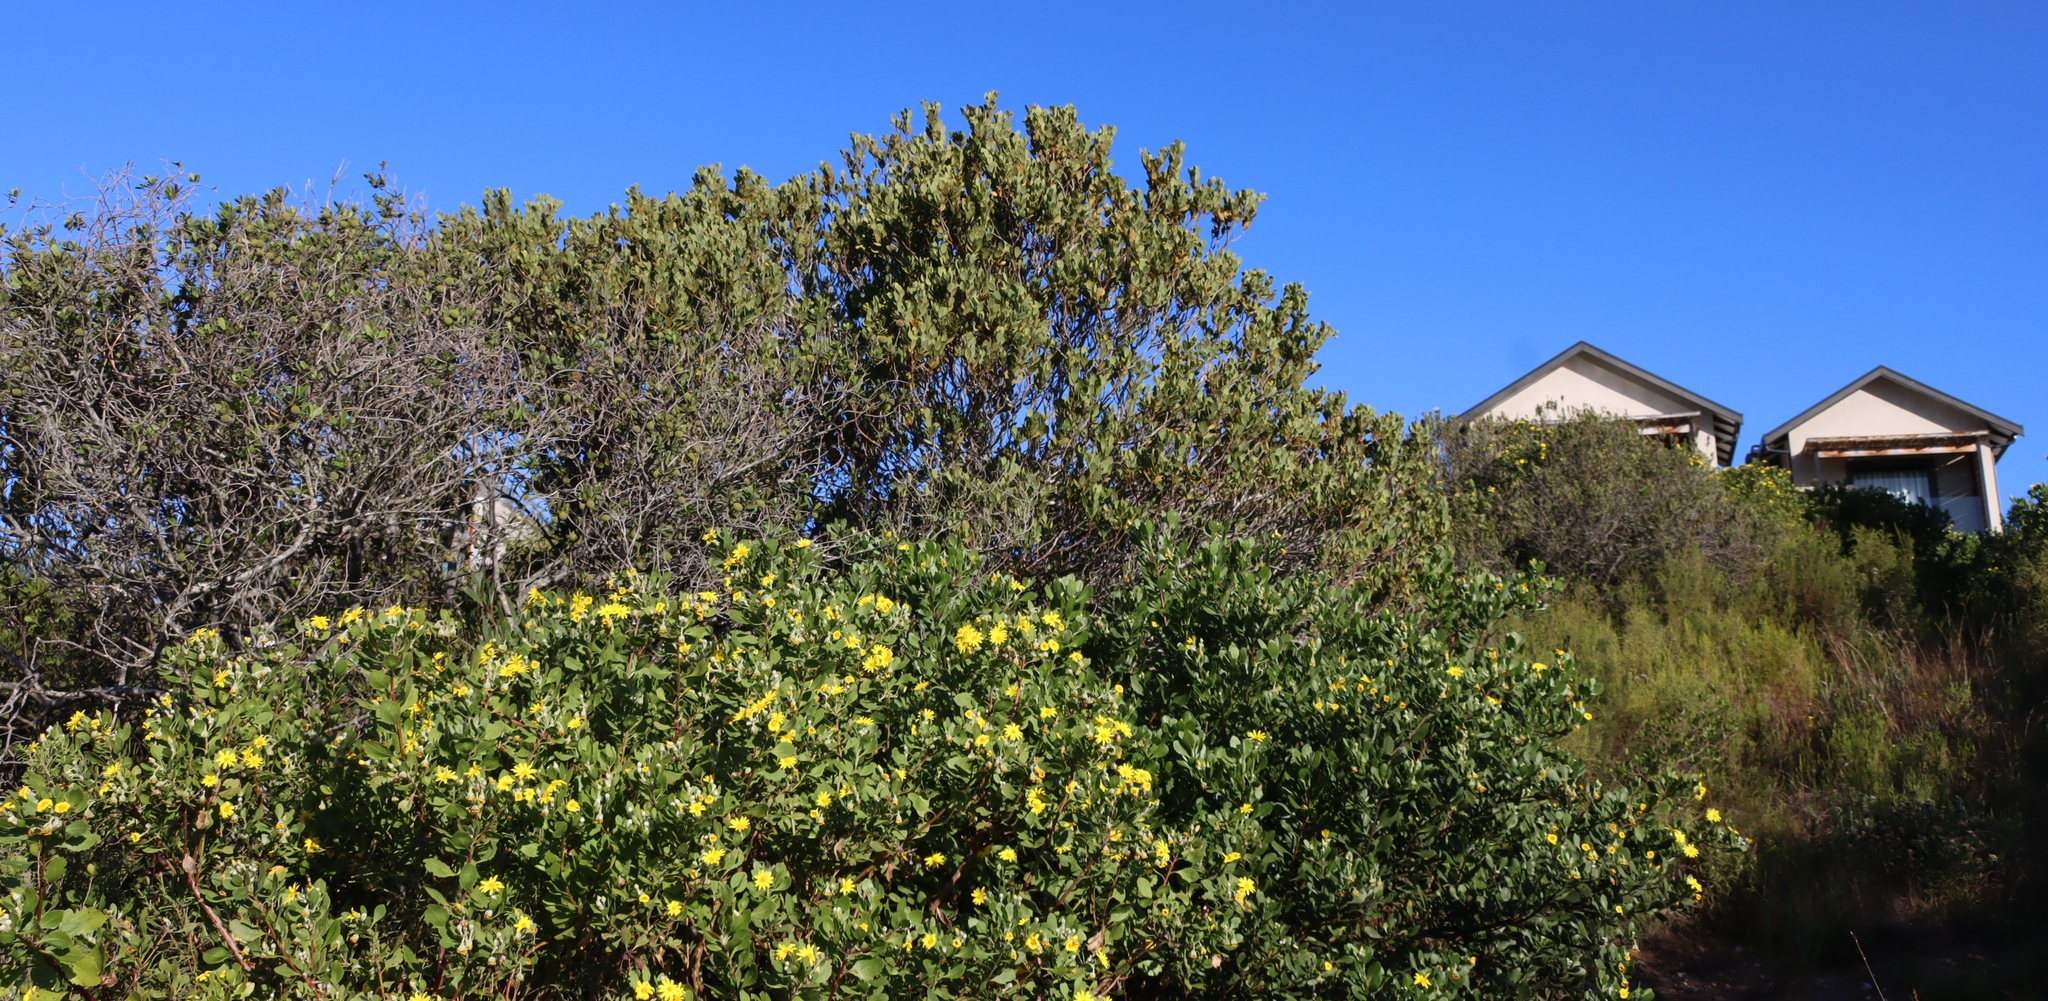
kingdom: Plantae
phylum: Tracheophyta
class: Magnoliopsida
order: Santalales
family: Santalaceae
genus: Osyris
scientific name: Osyris compressa
